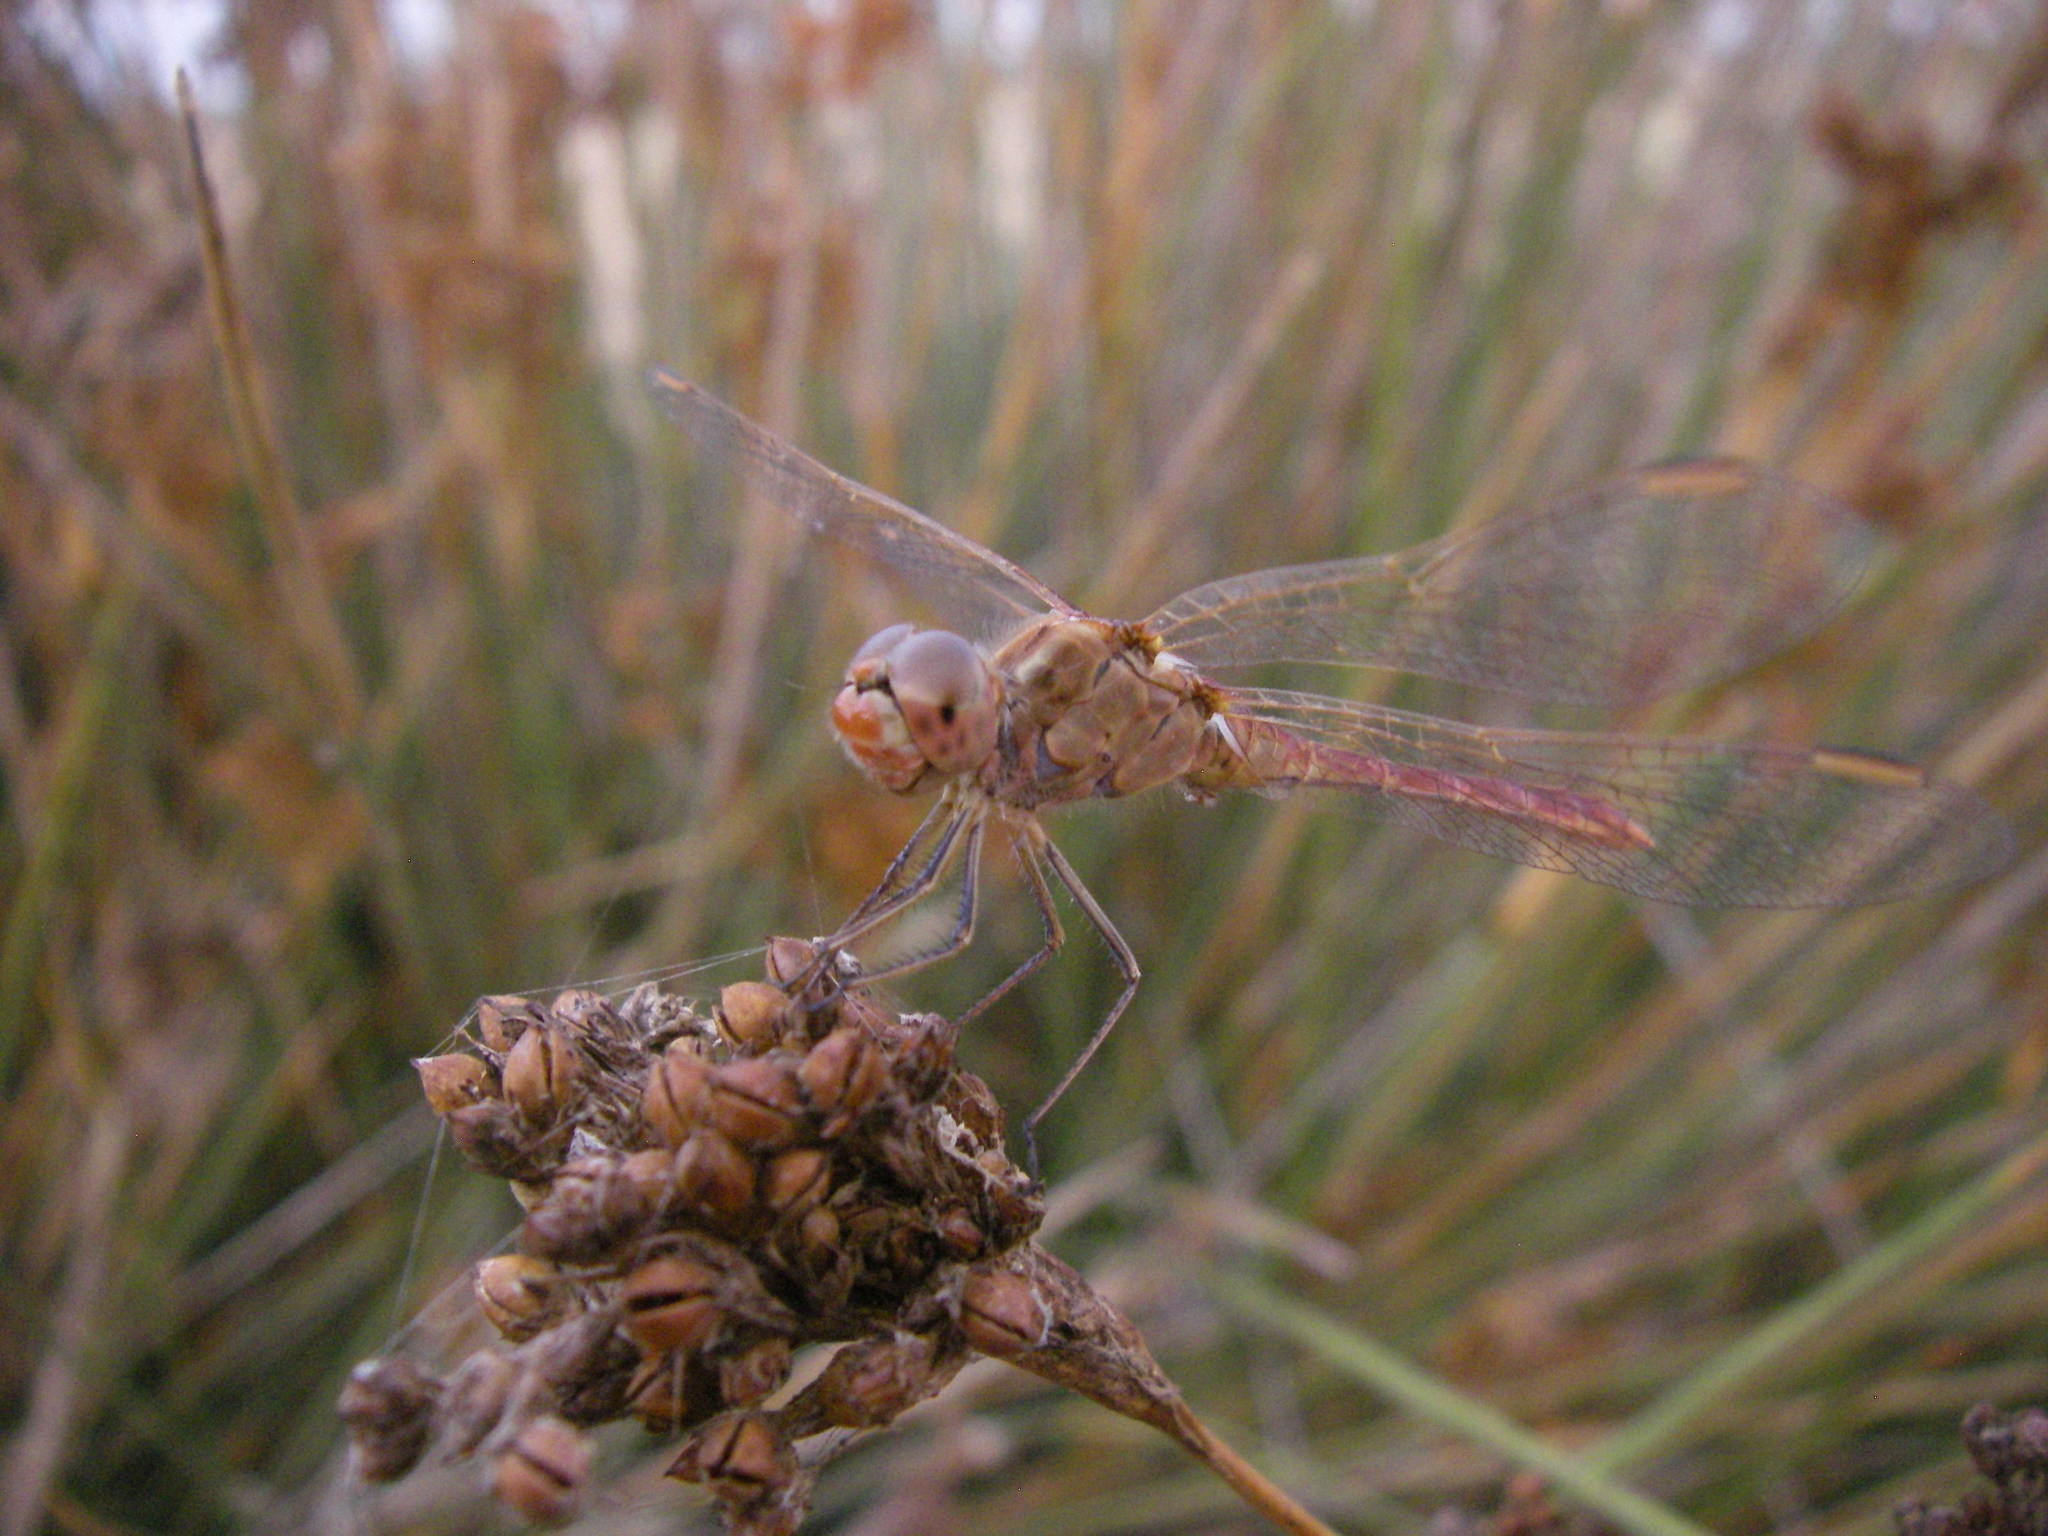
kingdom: Animalia
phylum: Arthropoda
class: Insecta
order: Odonata
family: Libellulidae
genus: Sympetrum
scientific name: Sympetrum meridionale
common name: Southern darter
